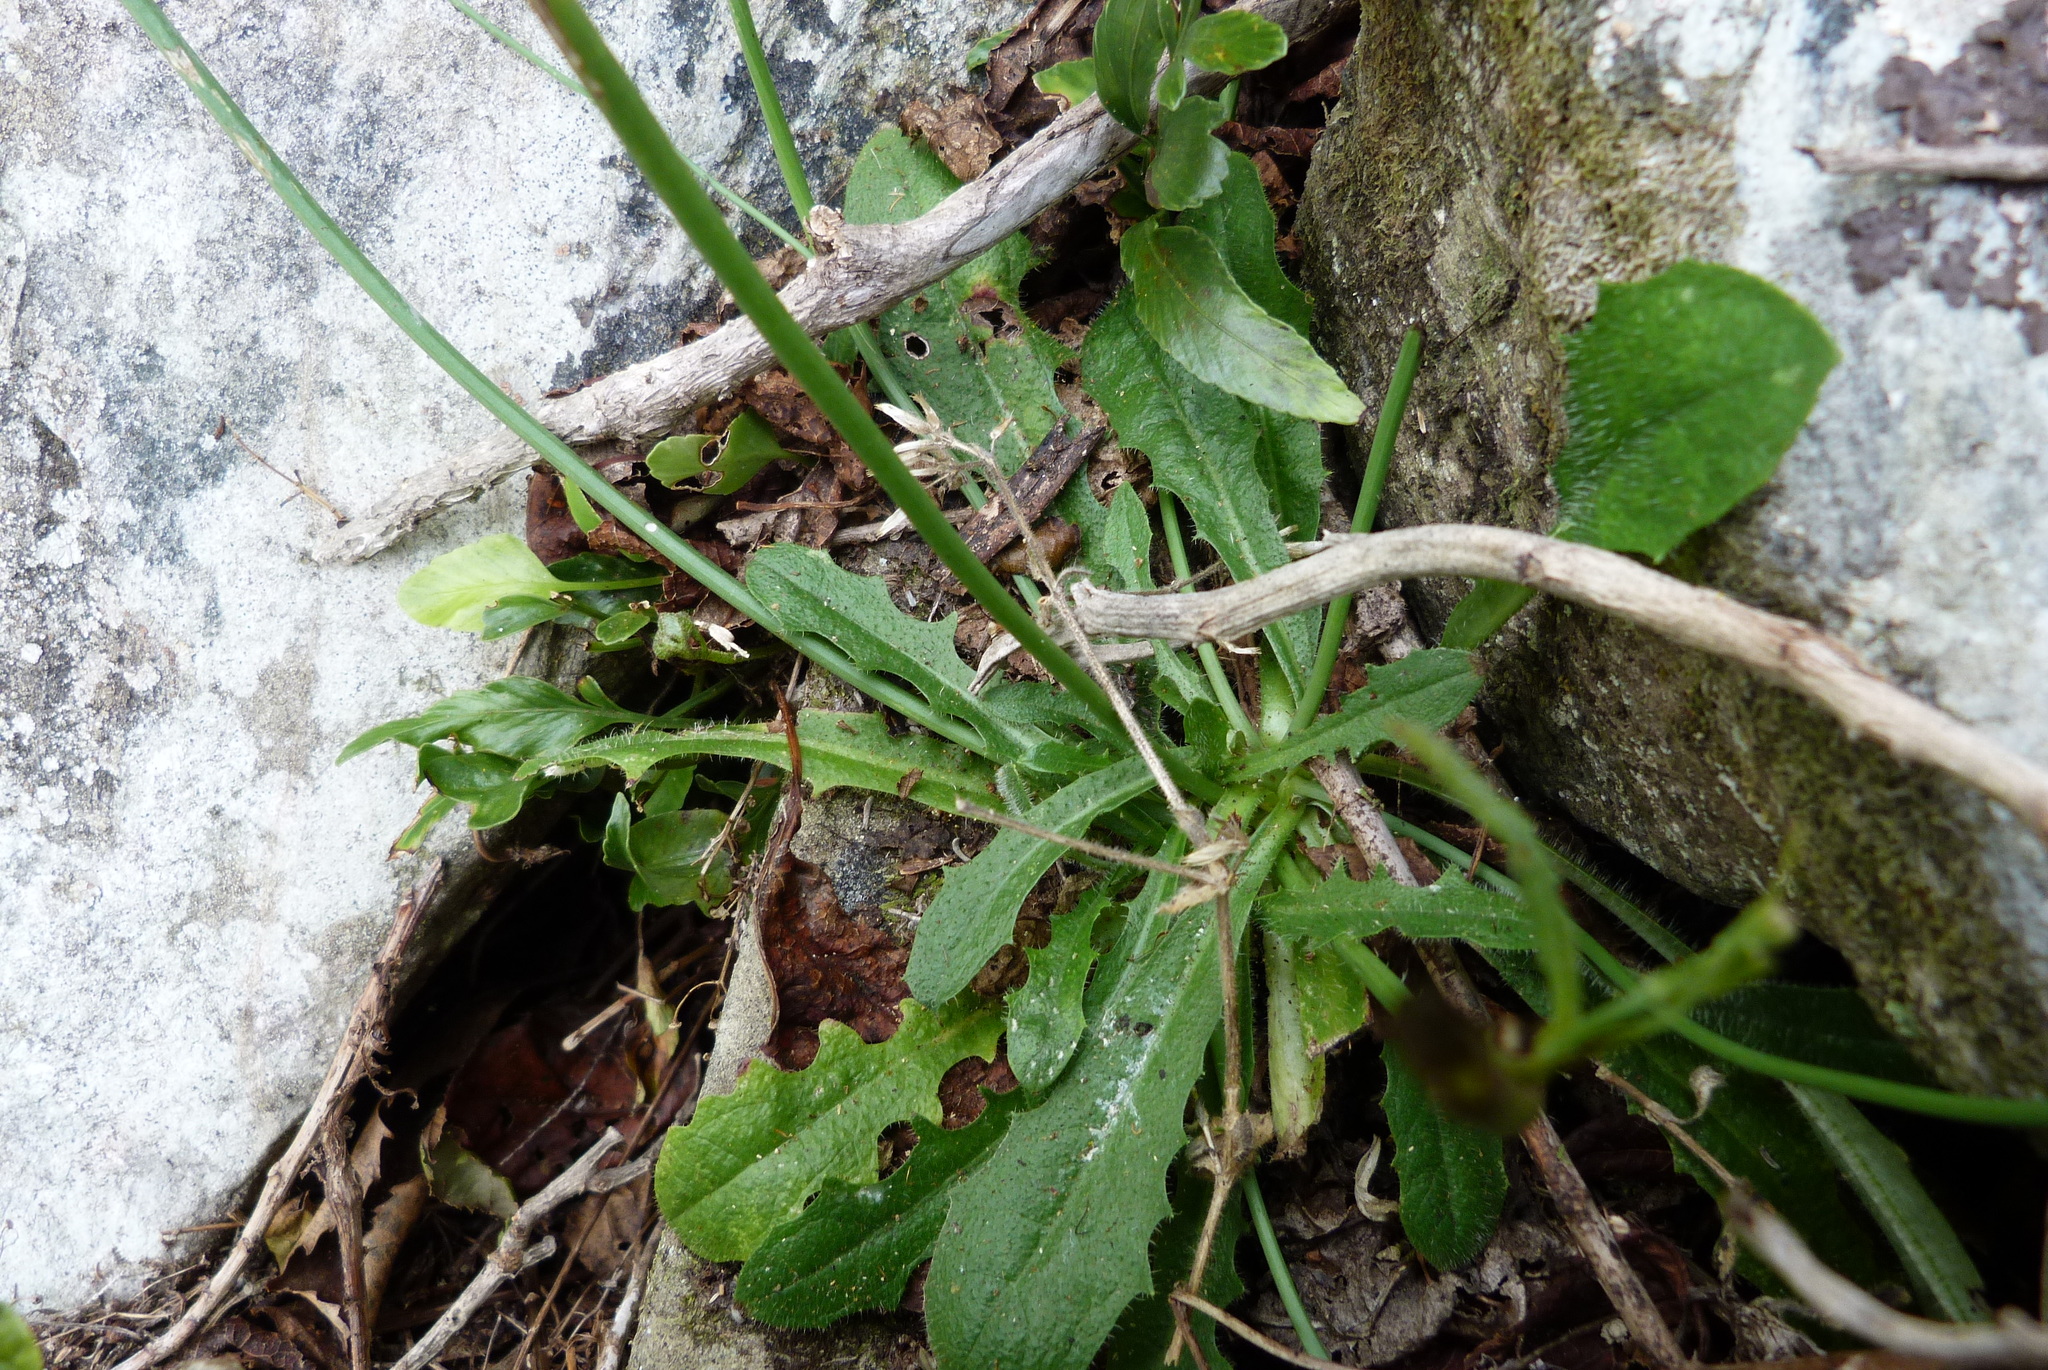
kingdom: Plantae
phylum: Tracheophyta
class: Magnoliopsida
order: Asterales
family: Asteraceae
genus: Hypochaeris
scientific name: Hypochaeris radicata
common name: Flatweed
